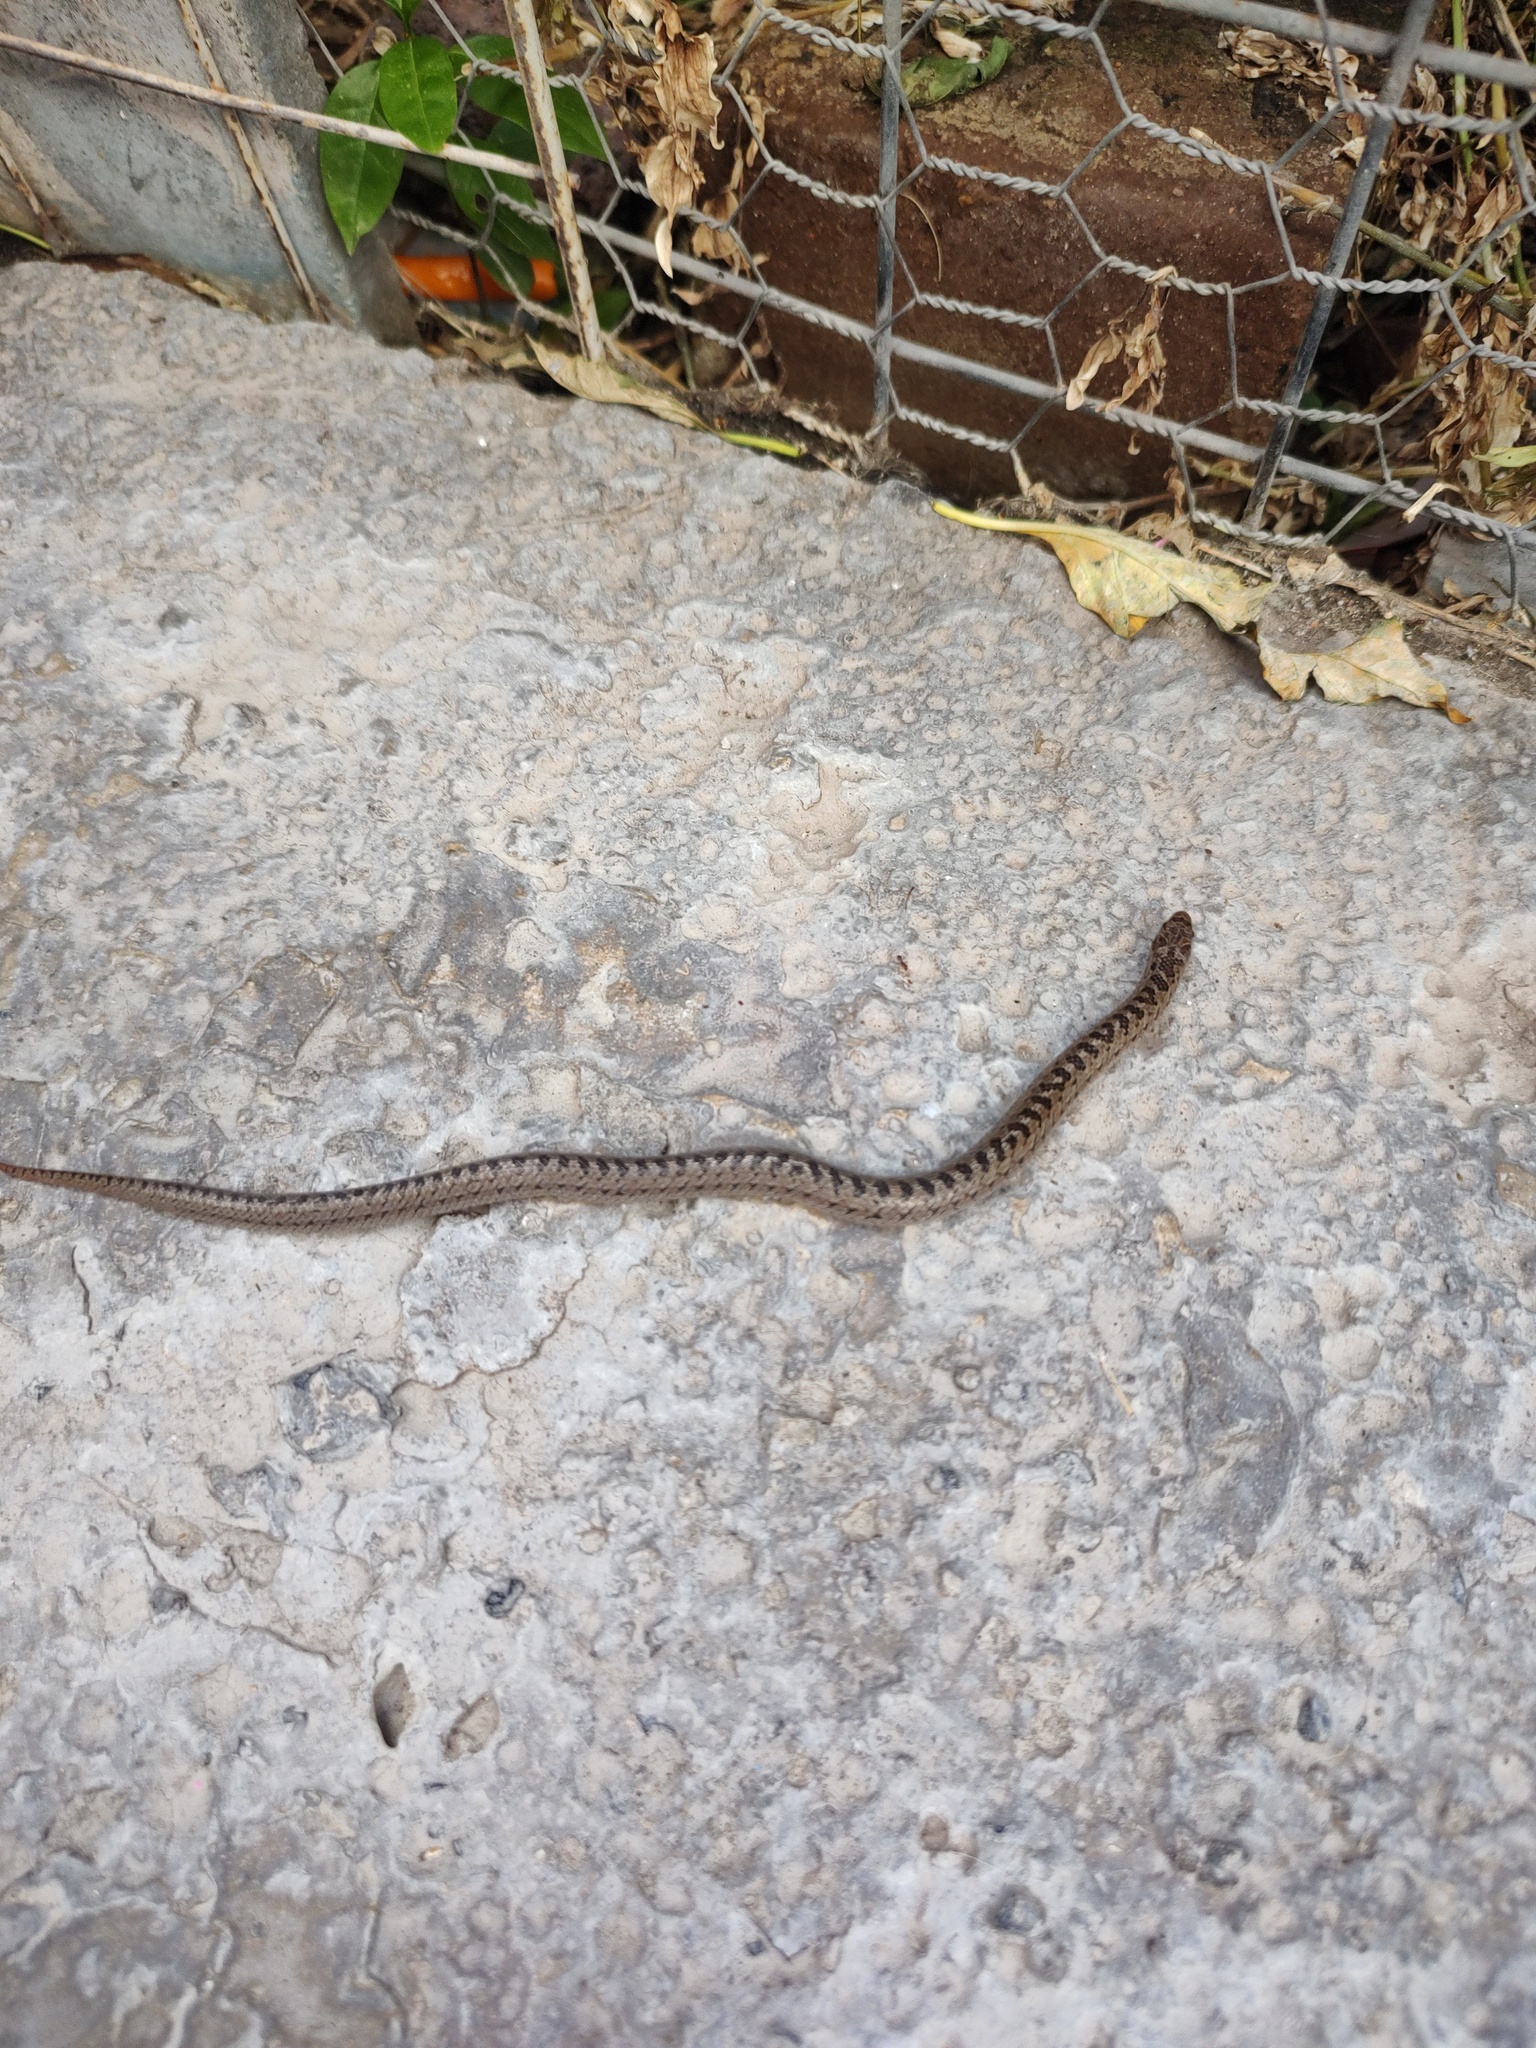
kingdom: Animalia
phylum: Chordata
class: Squamata
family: Colubridae
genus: Conopsis
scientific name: Conopsis nasus
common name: Largenose earth snake
